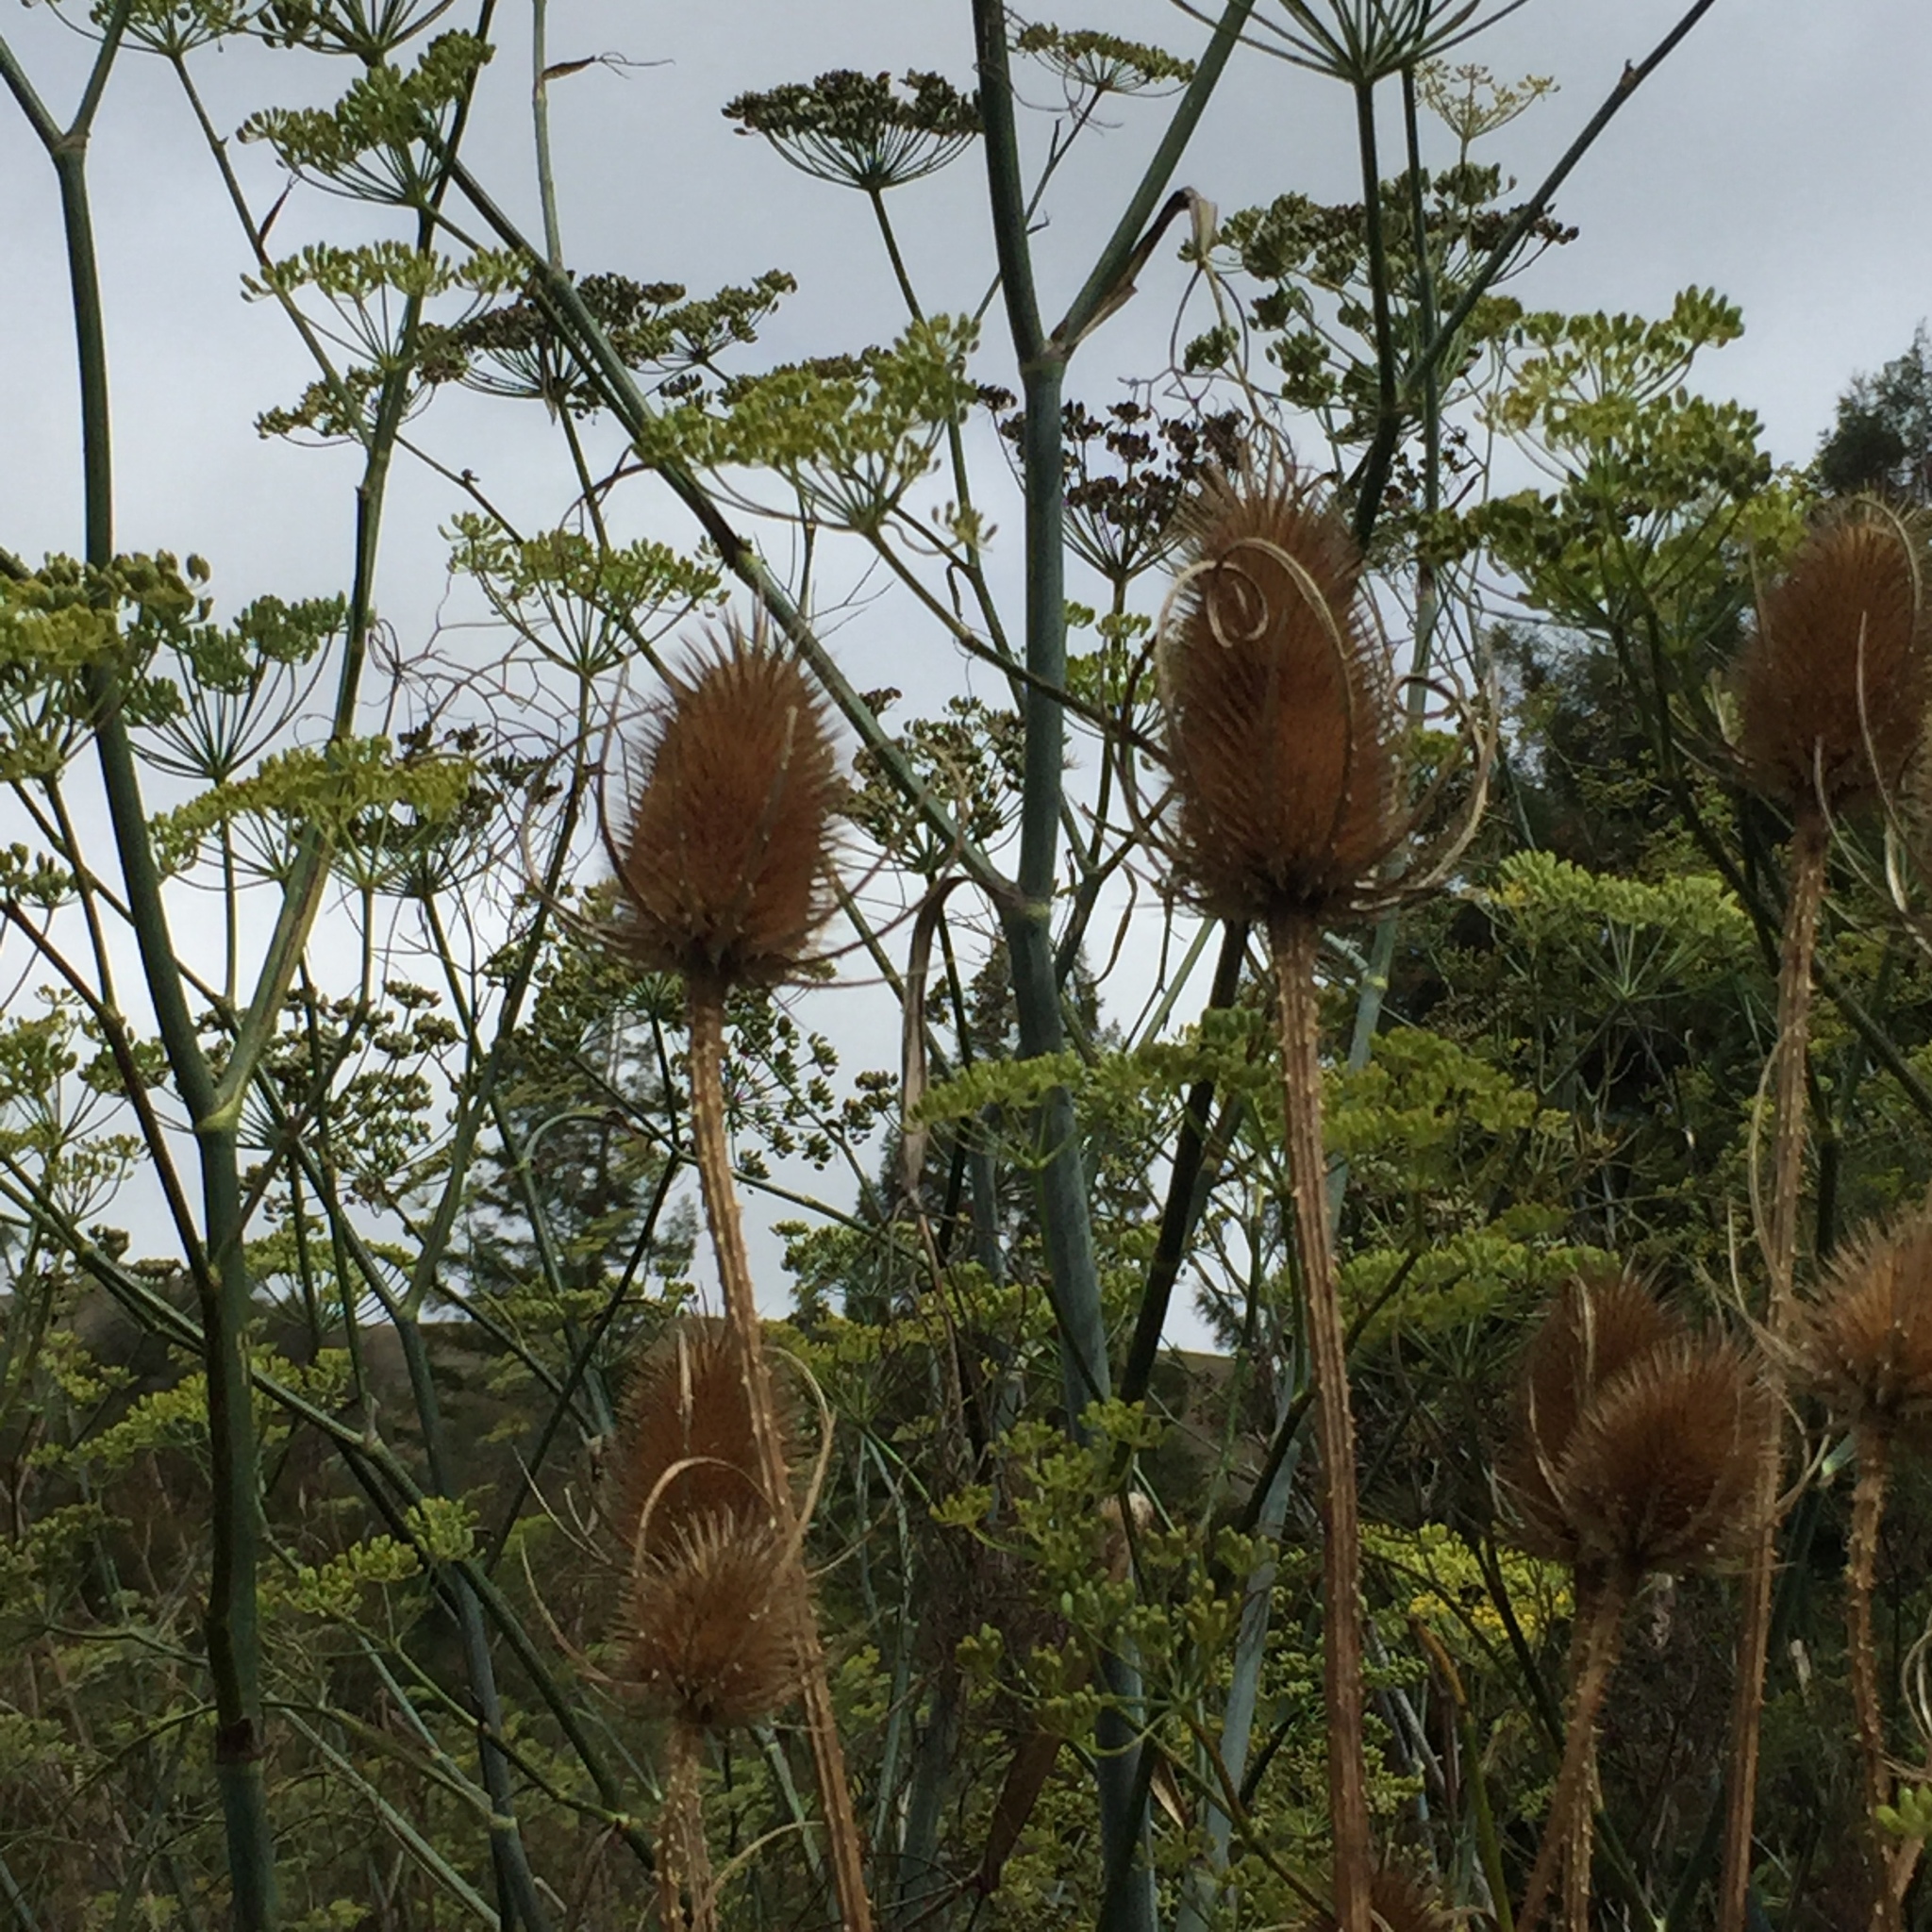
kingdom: Plantae
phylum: Tracheophyta
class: Magnoliopsida
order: Dipsacales
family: Caprifoliaceae
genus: Dipsacus
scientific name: Dipsacus fullonum
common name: Teasel
